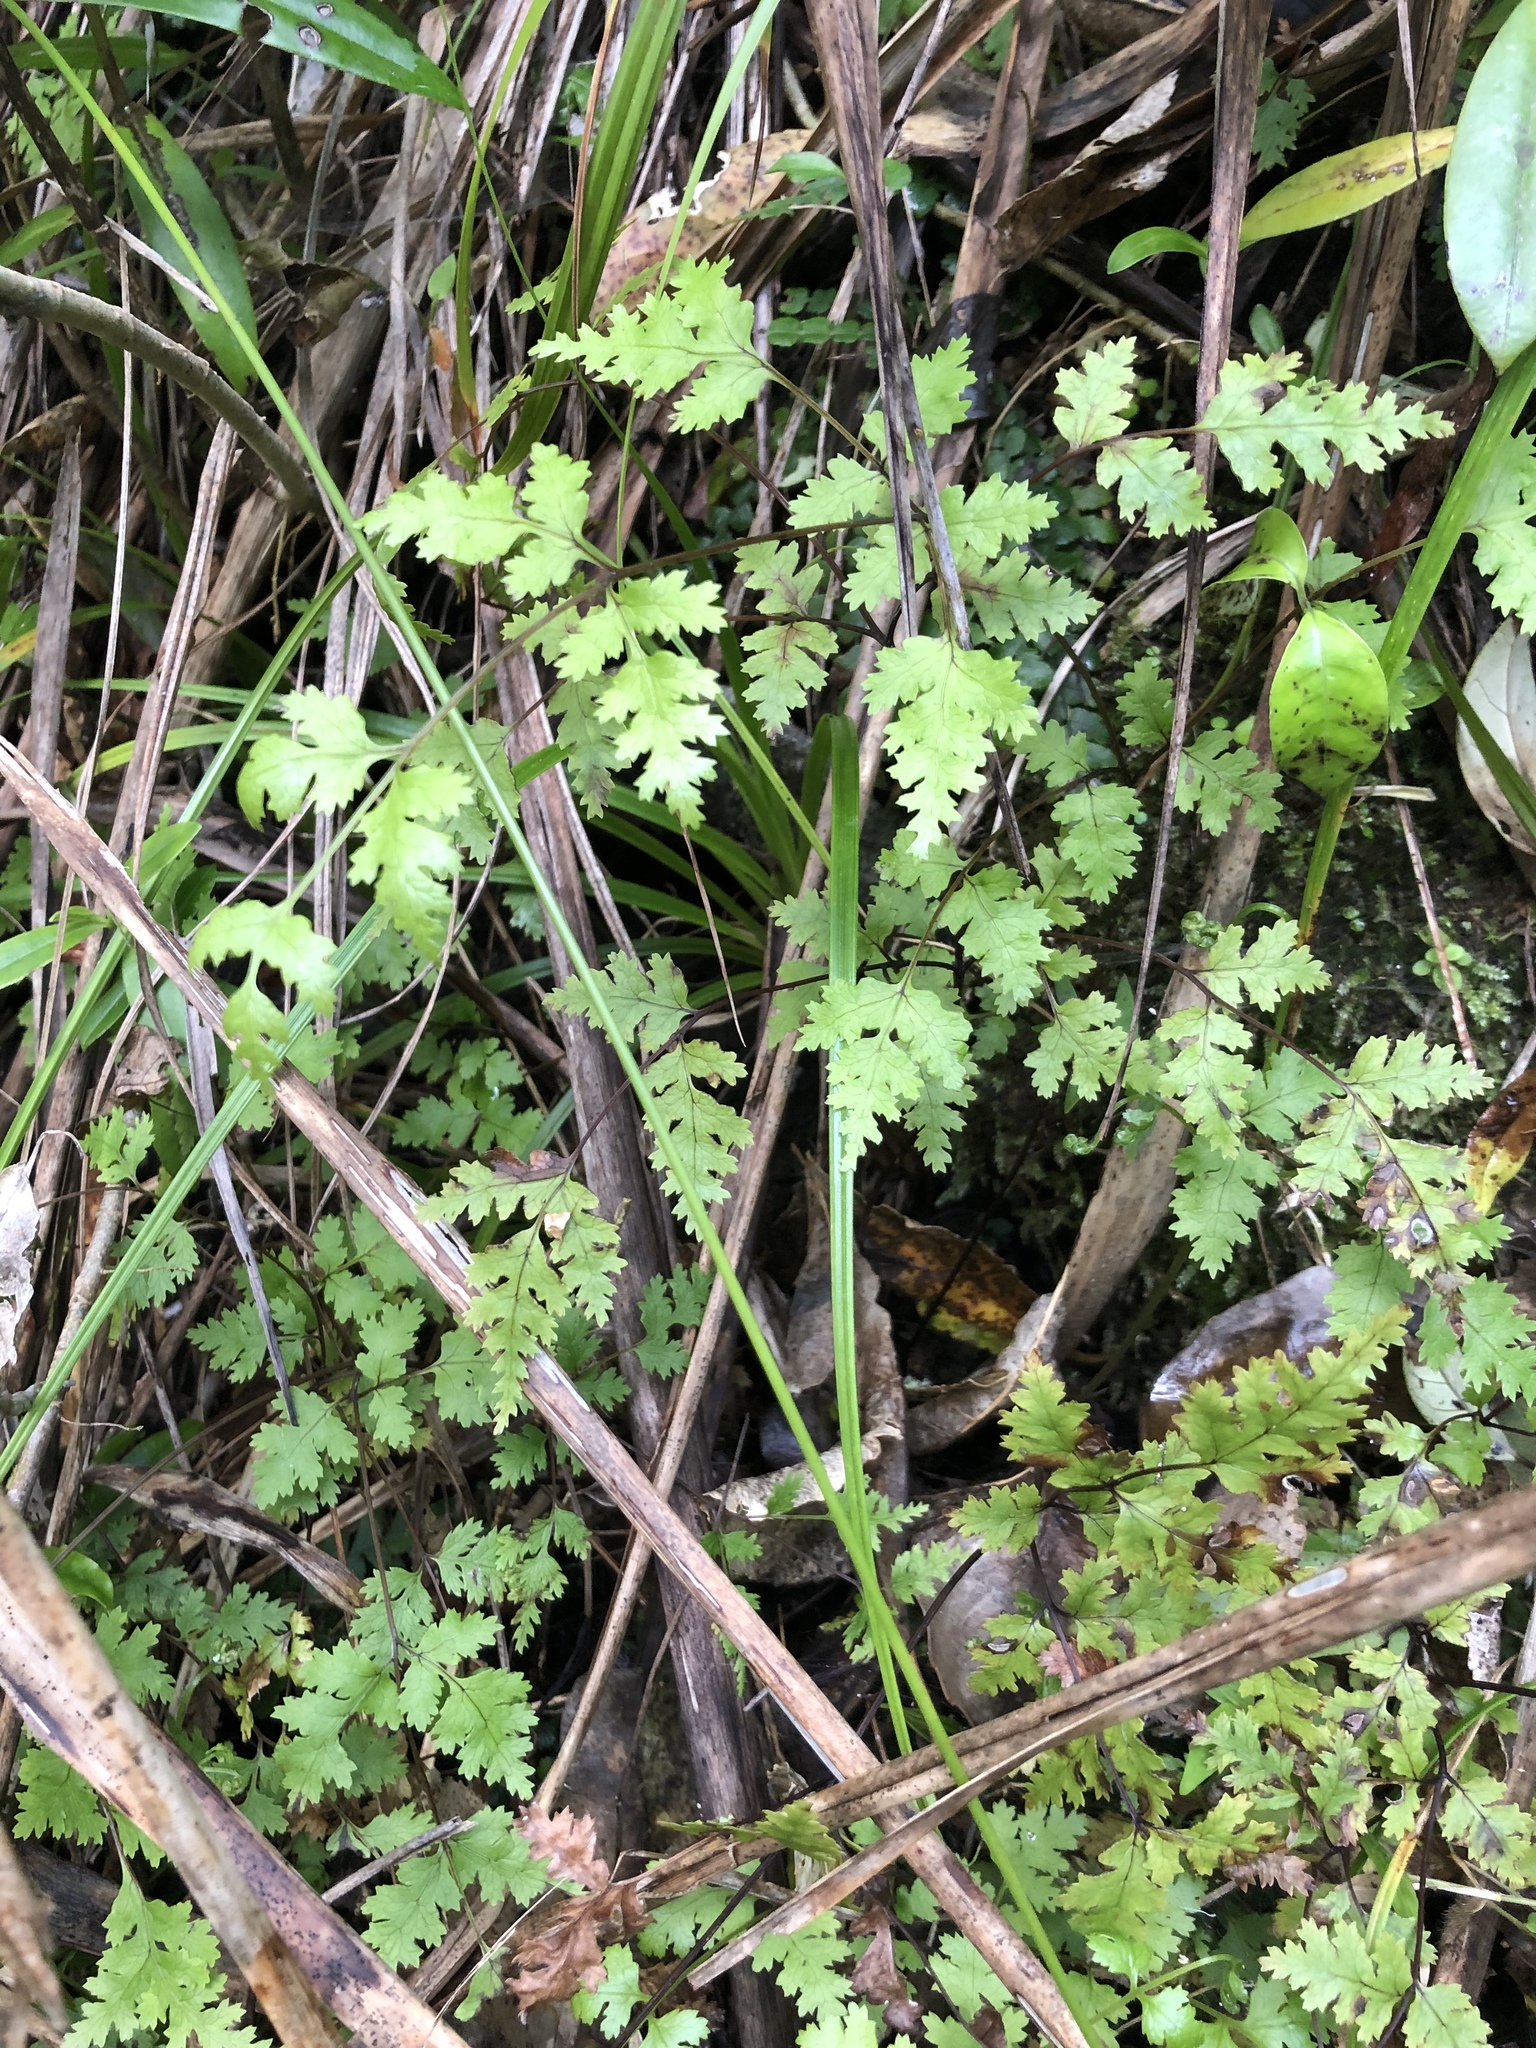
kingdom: Plantae
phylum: Tracheophyta
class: Polypodiopsida
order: Polypodiales
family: Pteridaceae
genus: Pteris
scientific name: Pteris macilenta
